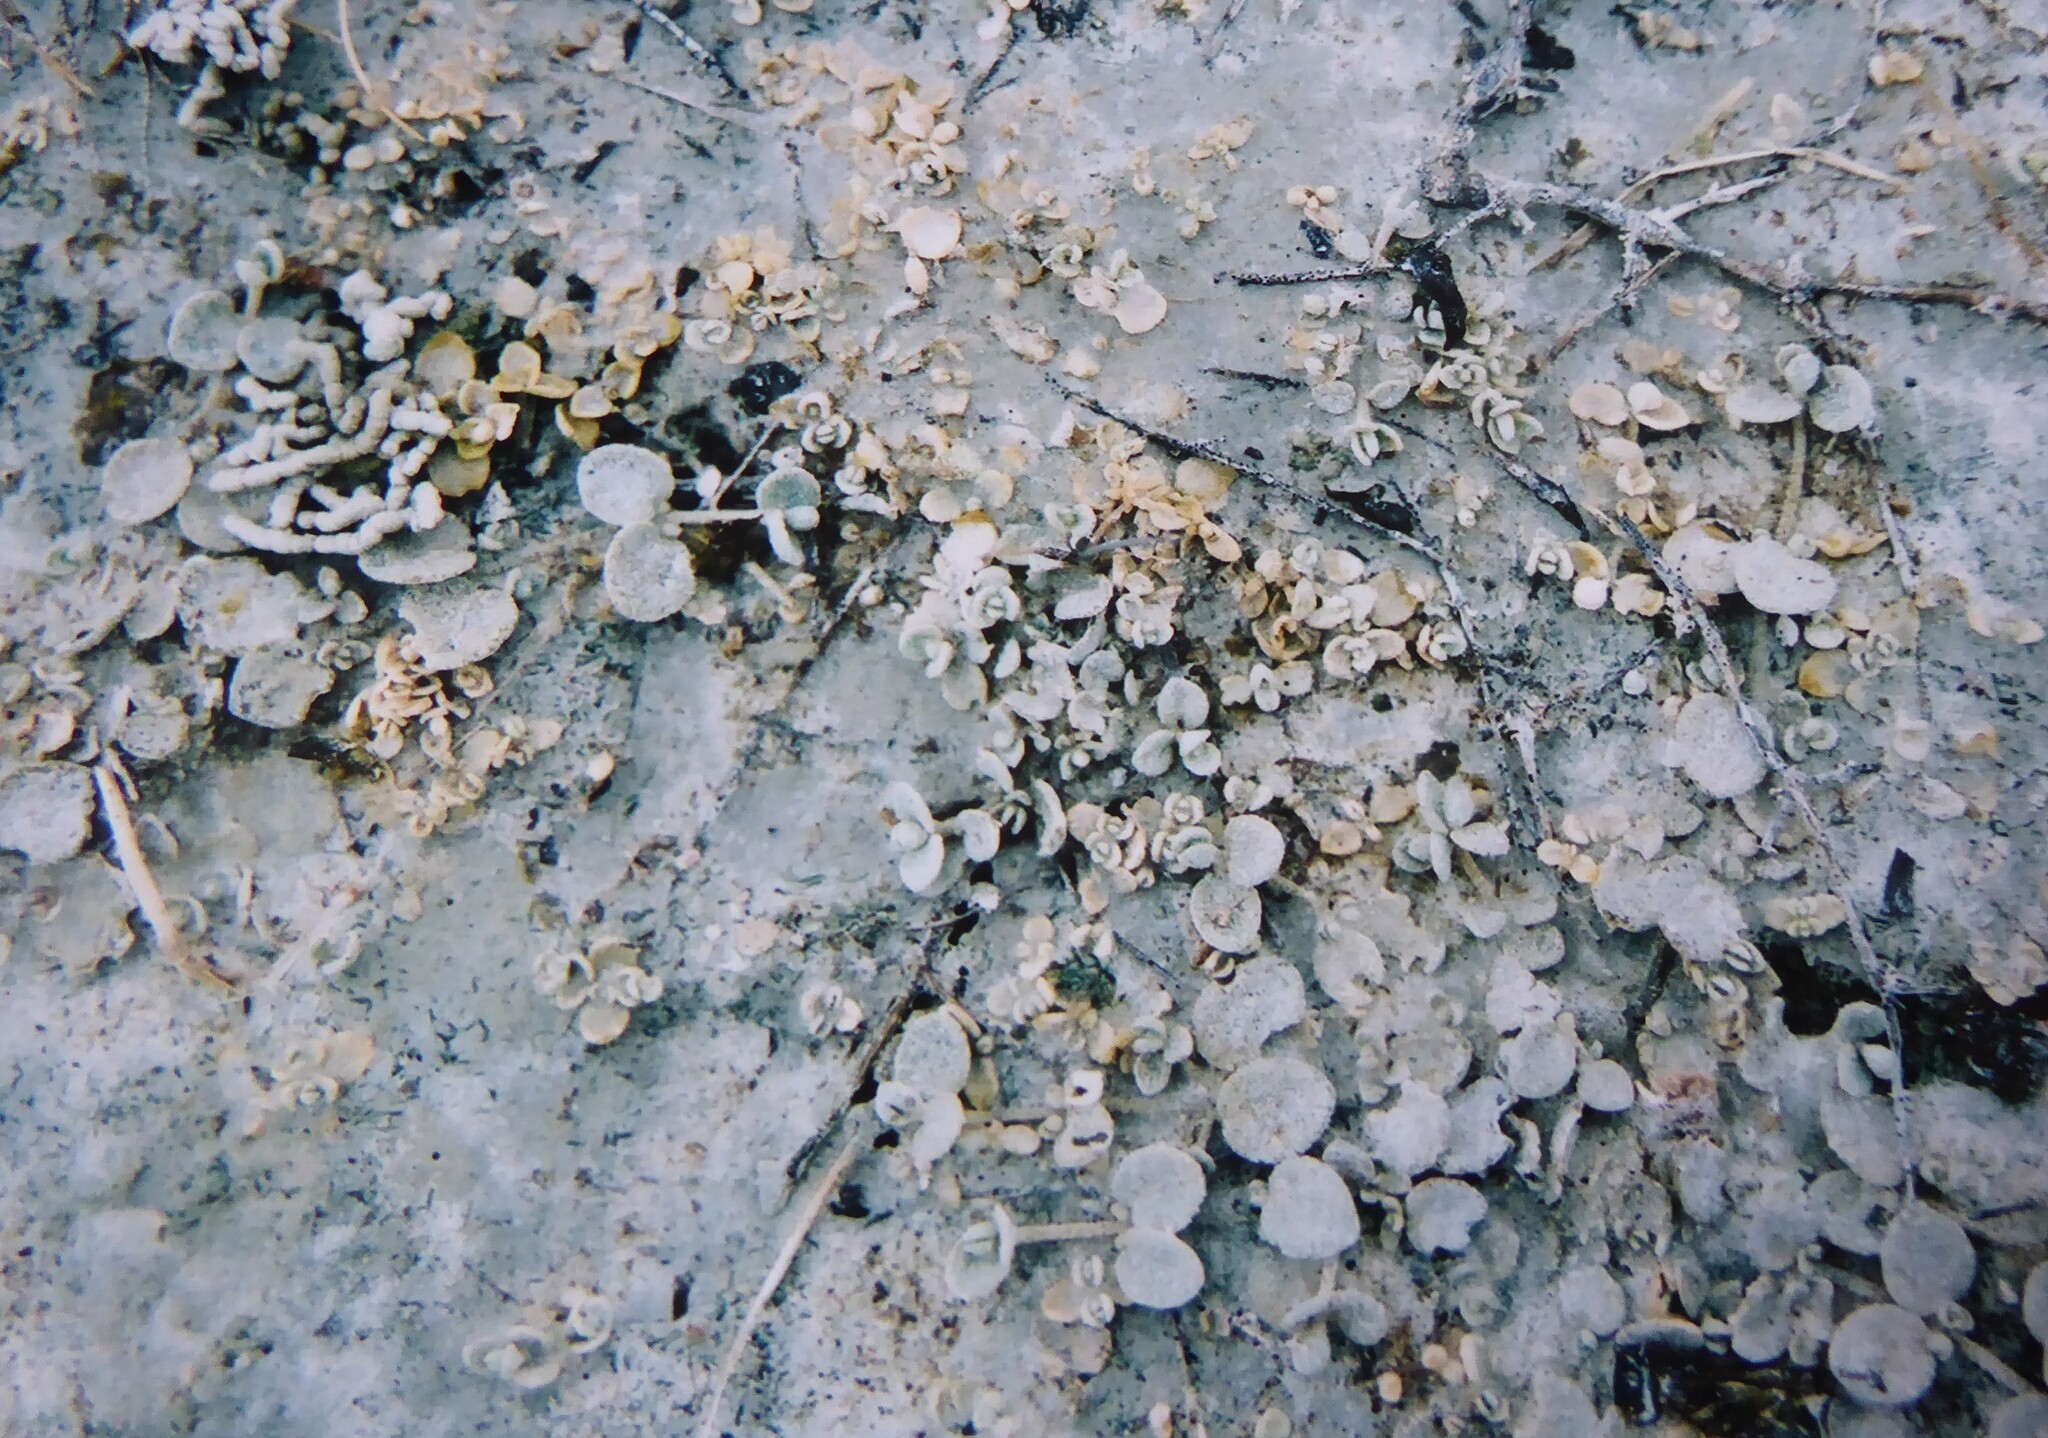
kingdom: Plantae
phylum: Tracheophyta
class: Magnoliopsida
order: Caryophyllales
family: Amaranthaceae
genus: Atriplex
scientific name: Atriplex buchananii
